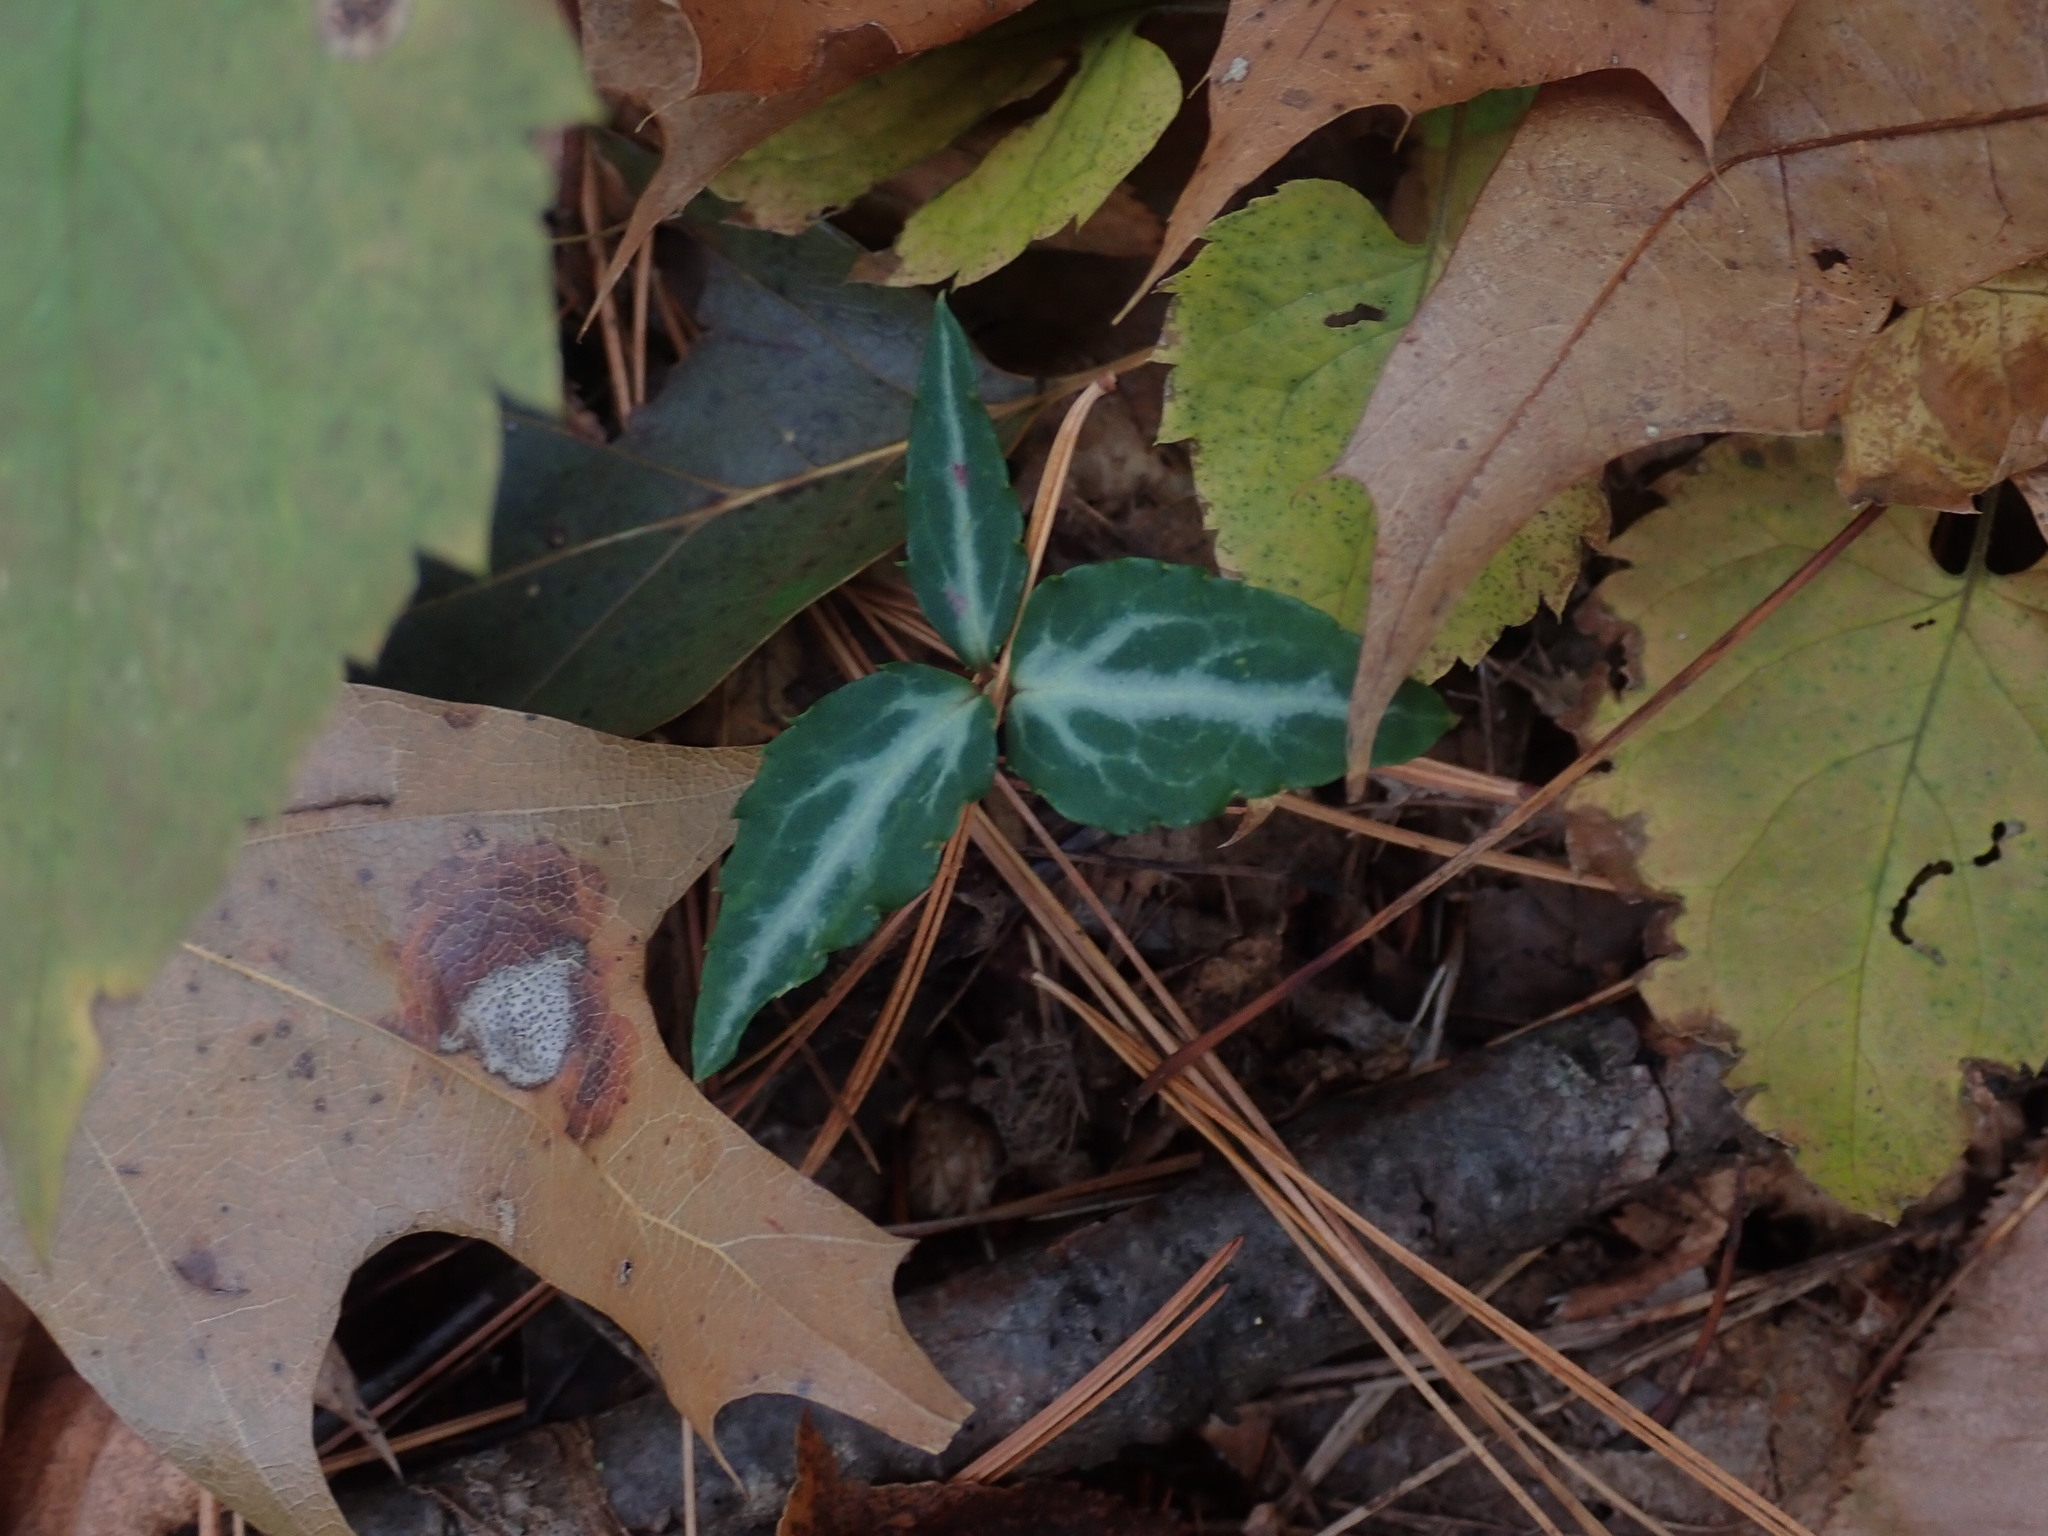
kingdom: Plantae
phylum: Tracheophyta
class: Magnoliopsida
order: Ericales
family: Ericaceae
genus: Chimaphila
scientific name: Chimaphila maculata
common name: Spotted pipsissewa
